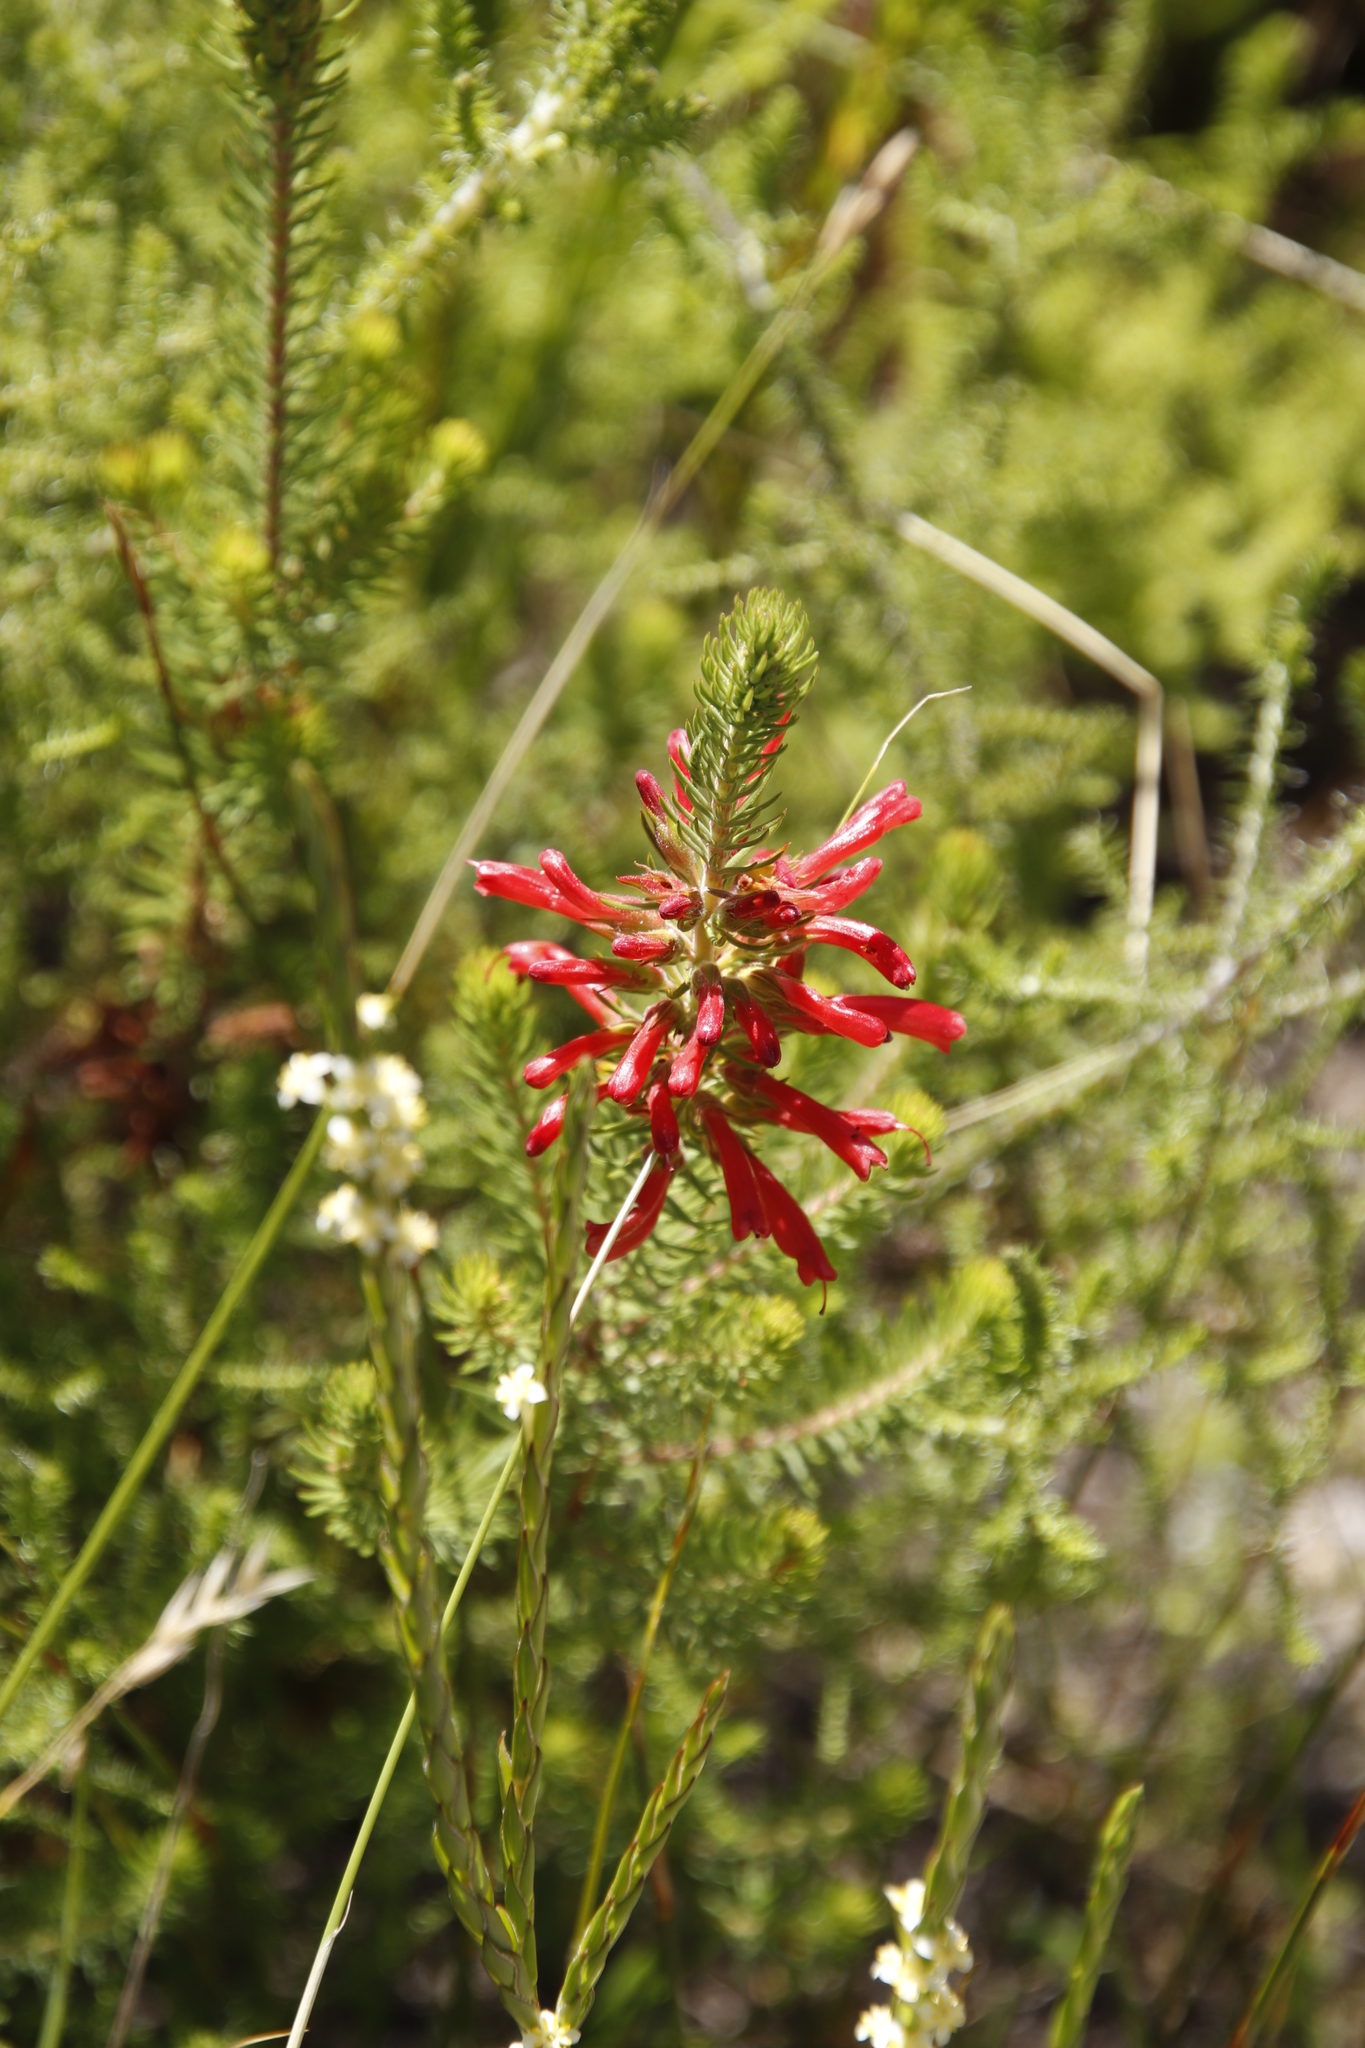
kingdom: Plantae
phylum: Tracheophyta
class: Magnoliopsida
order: Ericales
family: Ericaceae
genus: Erica
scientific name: Erica abietina
